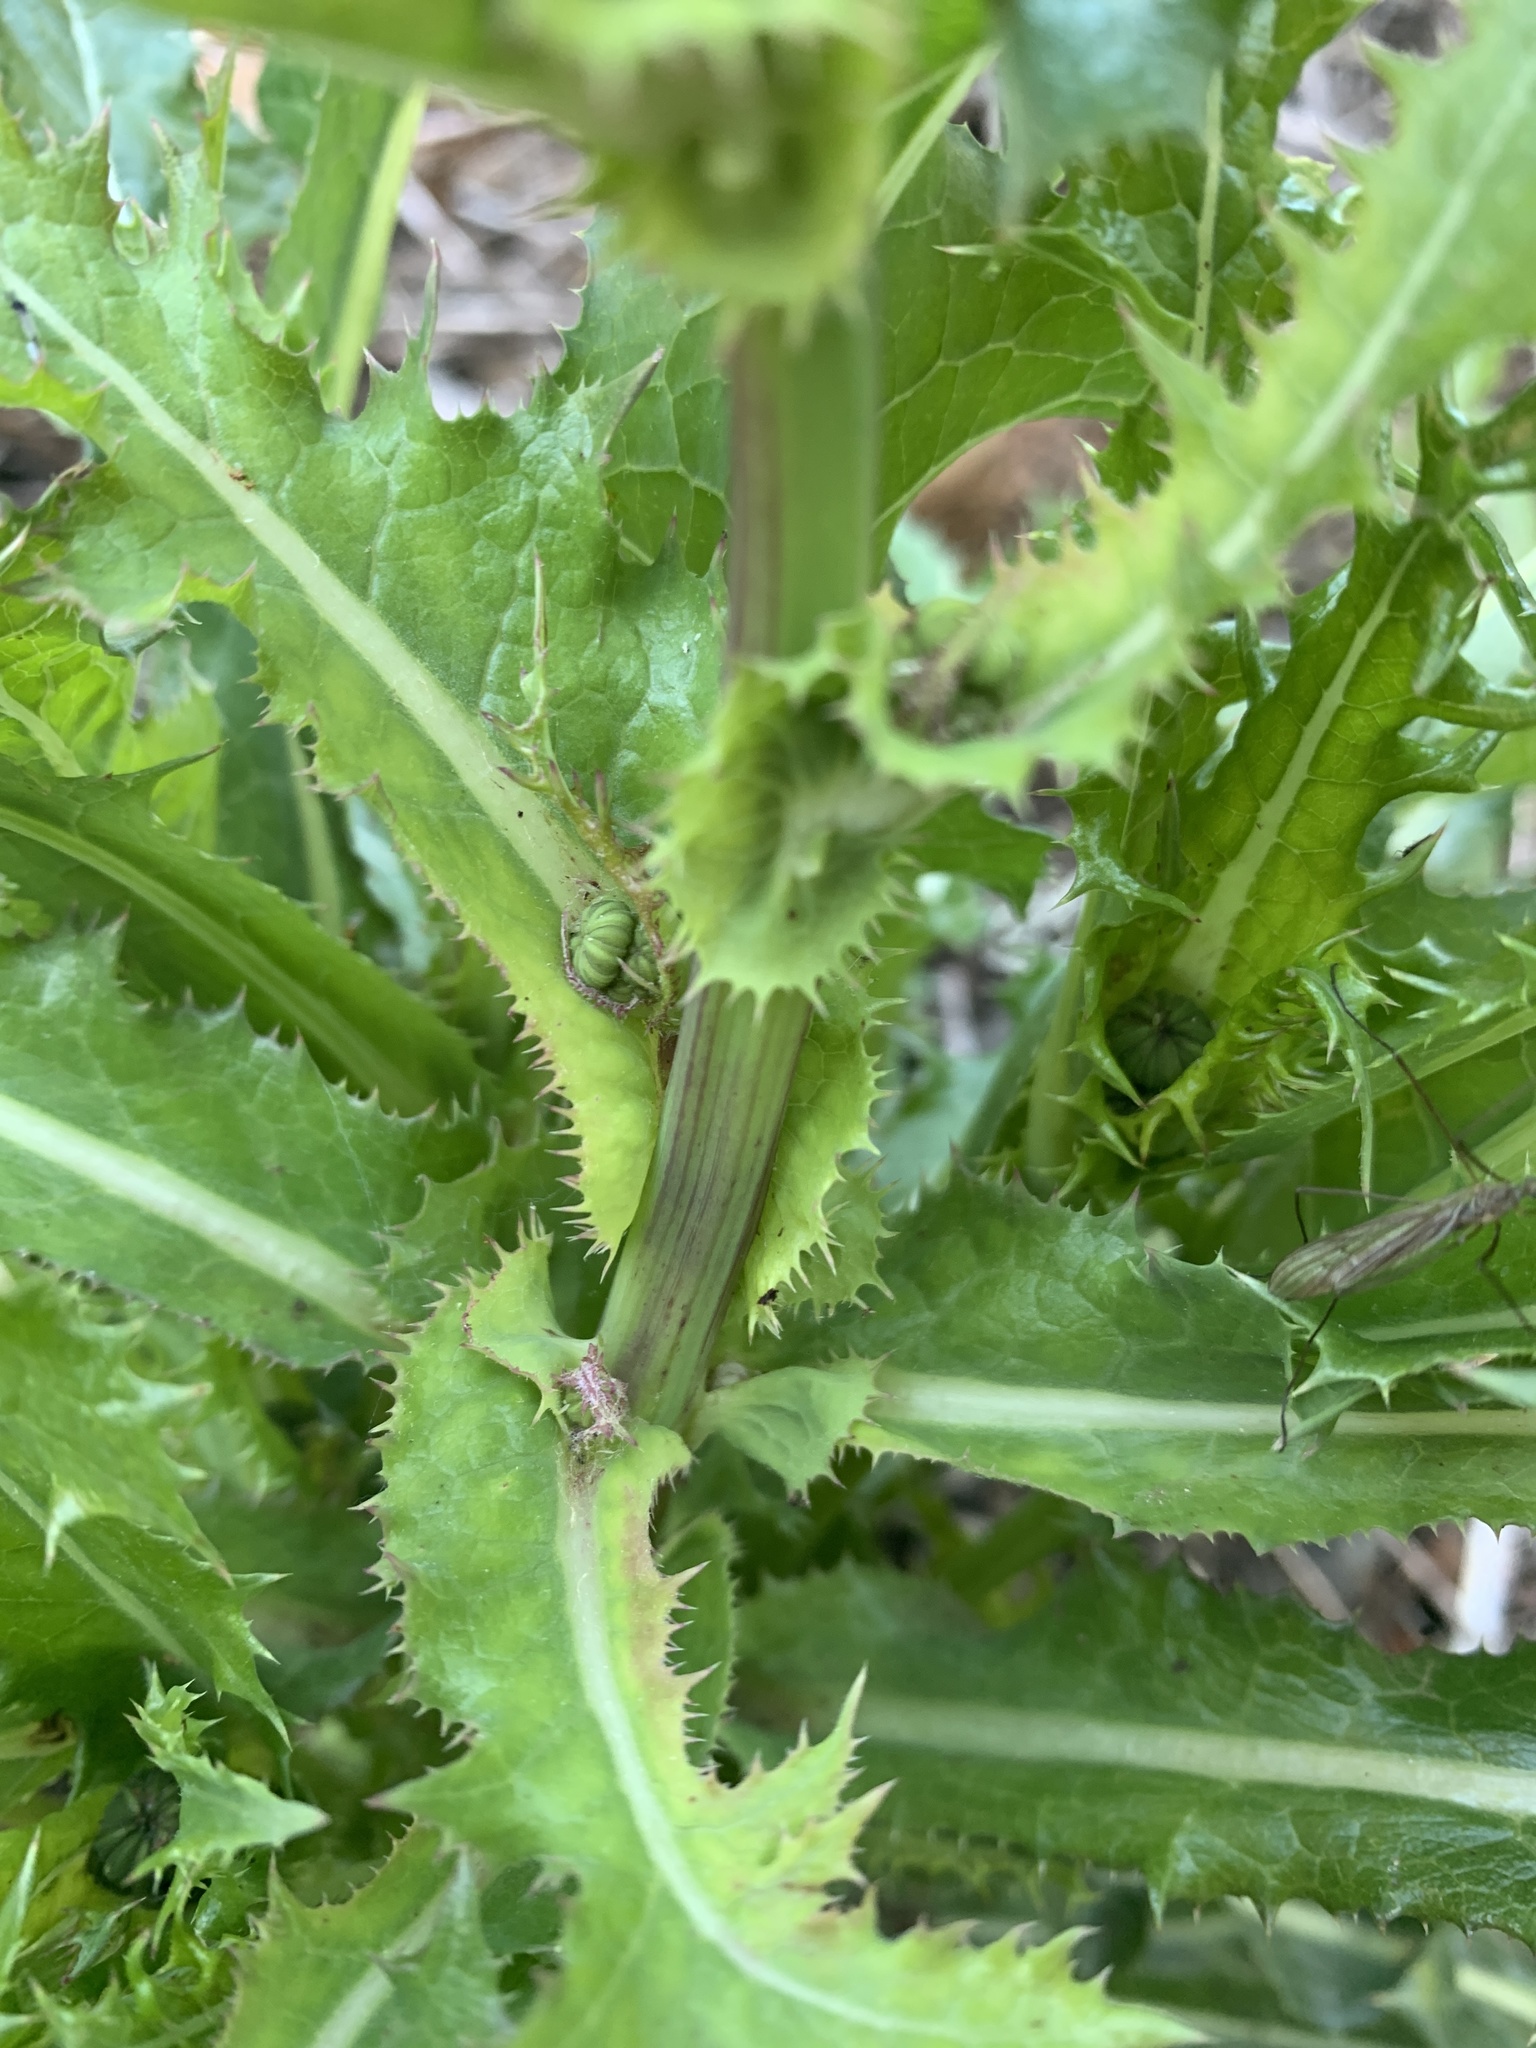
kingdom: Plantae
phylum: Tracheophyta
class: Magnoliopsida
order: Asterales
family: Asteraceae
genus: Sonchus
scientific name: Sonchus asper
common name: Prickly sow-thistle
